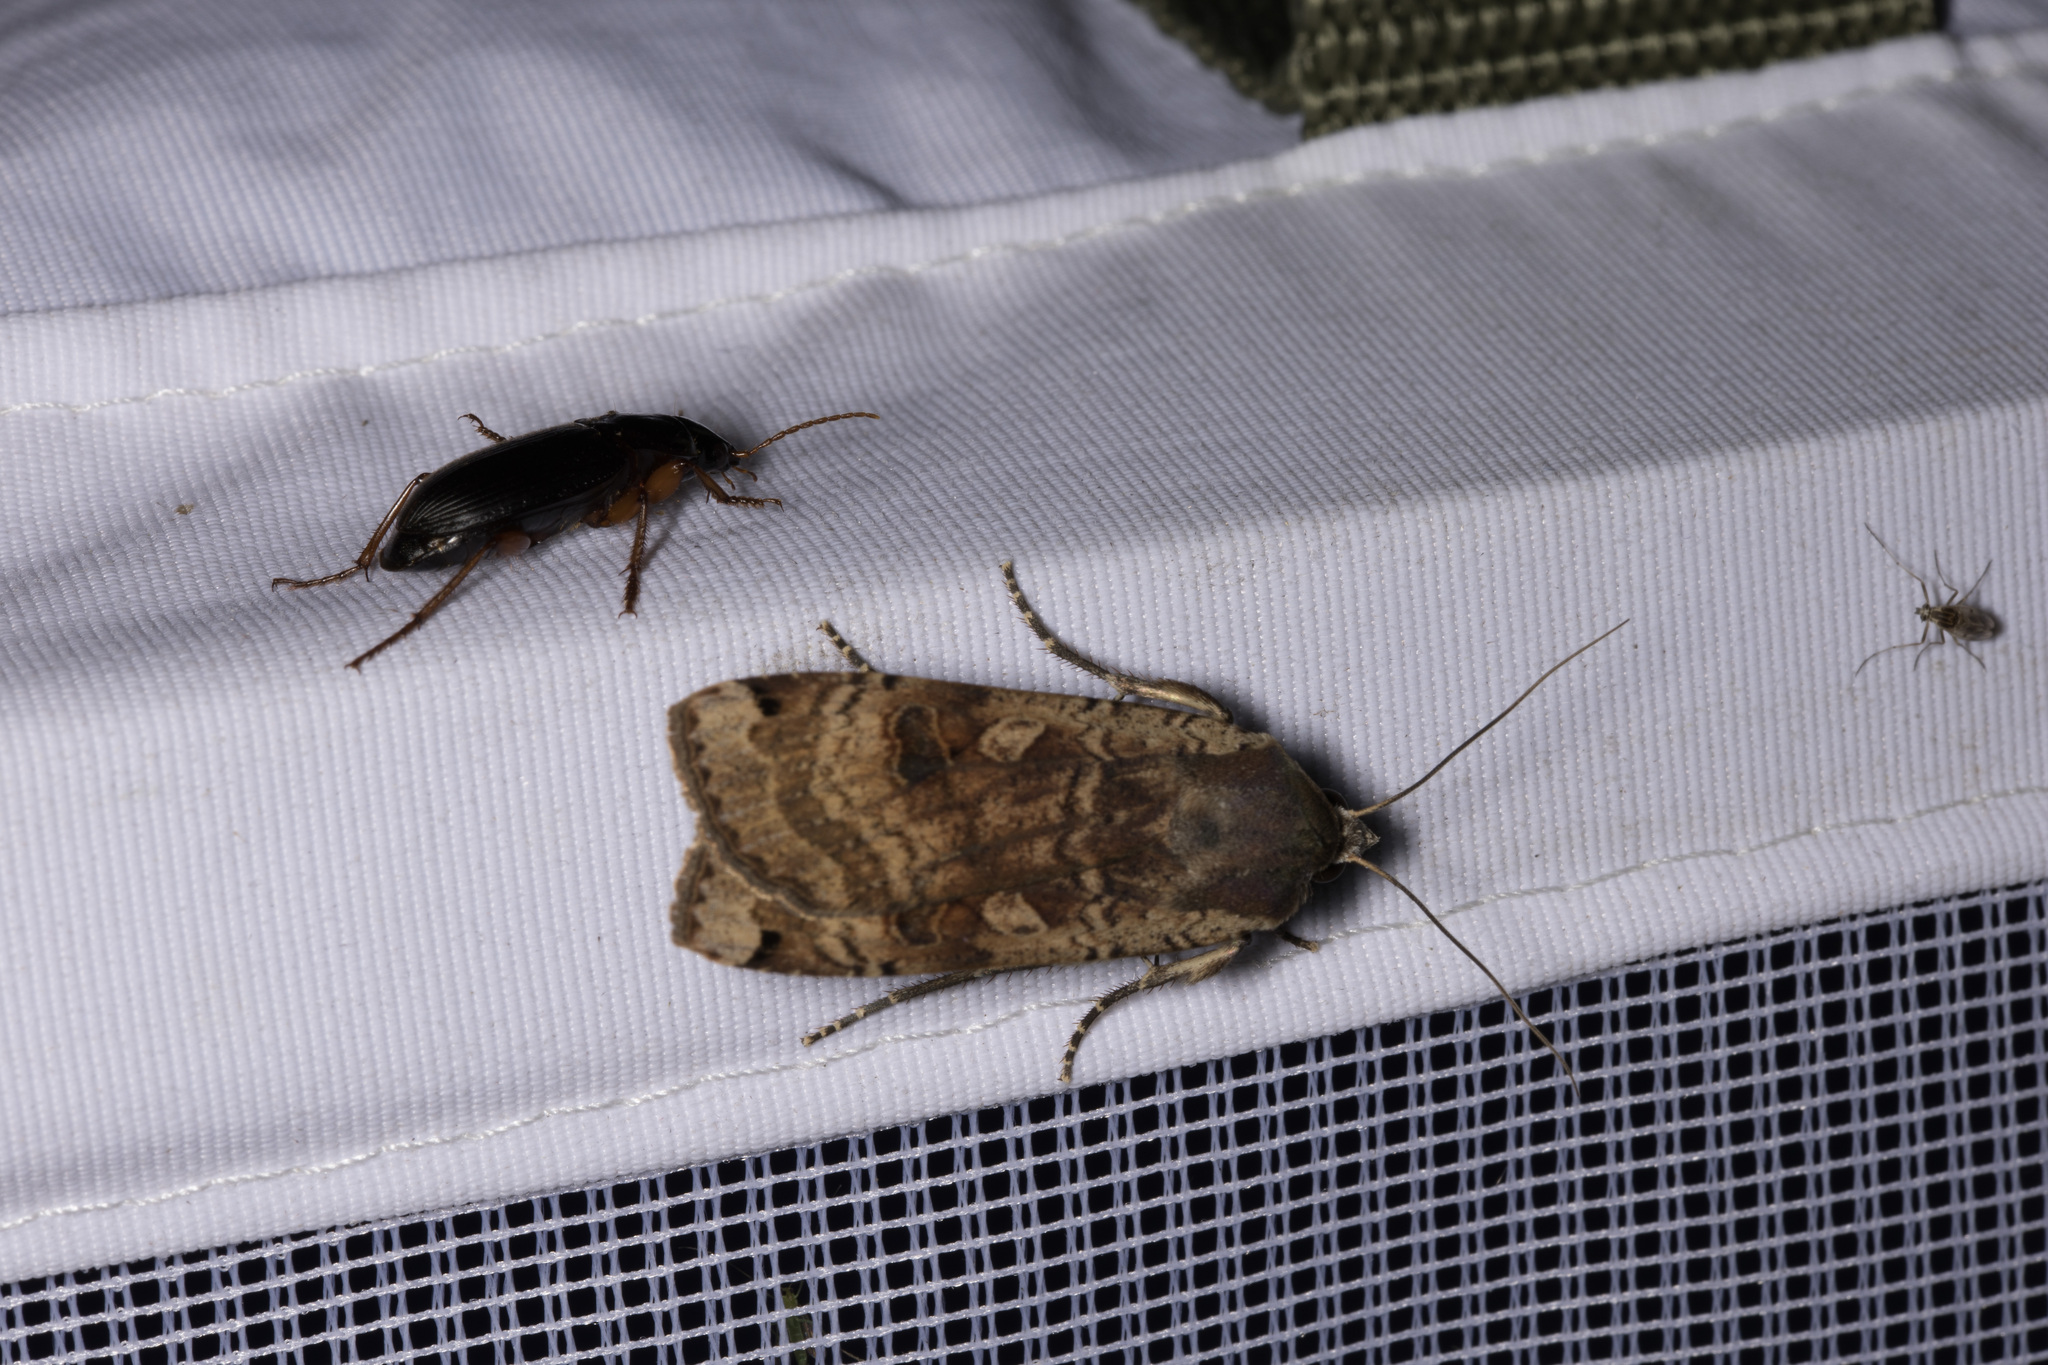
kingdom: Animalia
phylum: Arthropoda
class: Insecta
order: Lepidoptera
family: Noctuidae
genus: Noctua
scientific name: Noctua pronuba
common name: Large yellow underwing
